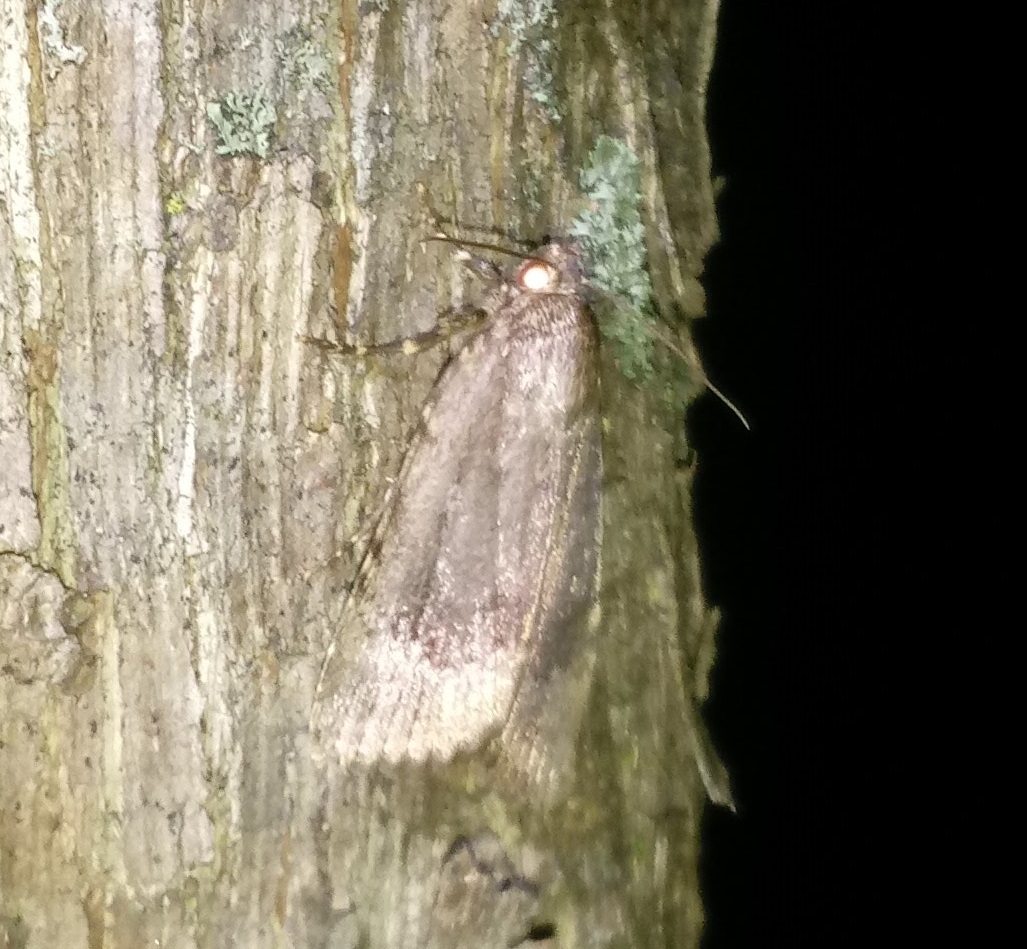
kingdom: Animalia
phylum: Arthropoda
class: Insecta
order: Lepidoptera
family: Noctuidae
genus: Amphipyra
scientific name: Amphipyra pyramidoides
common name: American copper underwing
